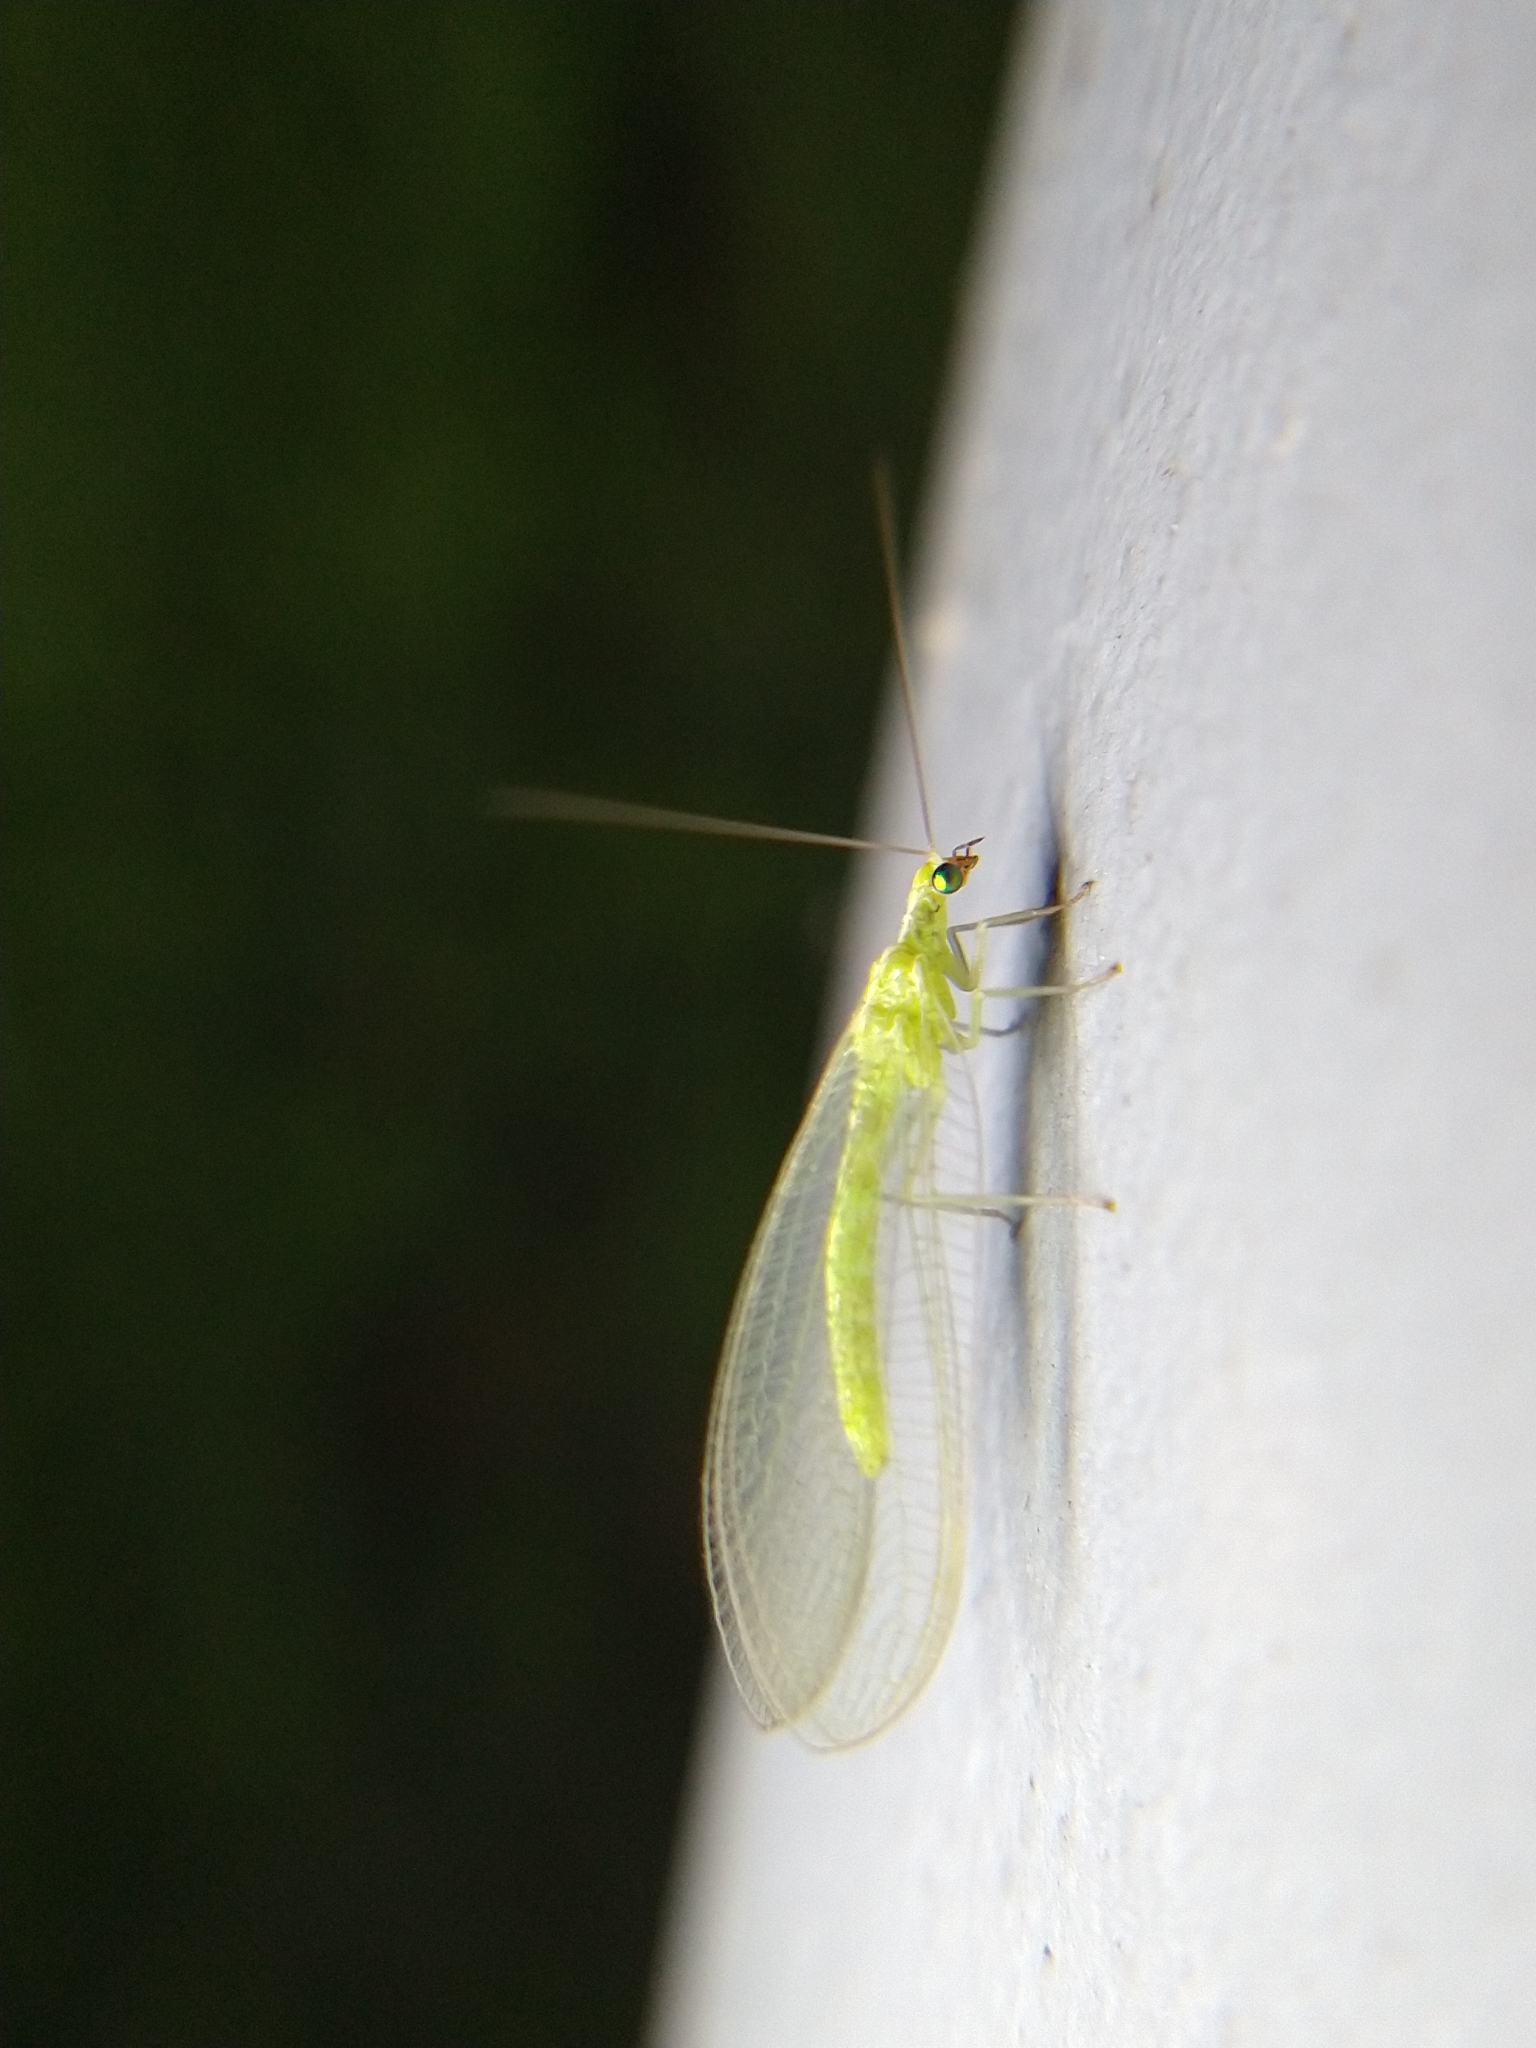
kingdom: Animalia
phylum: Arthropoda
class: Insecta
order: Neuroptera
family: Chrysopidae
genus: Chrysoperla
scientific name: Chrysoperla
